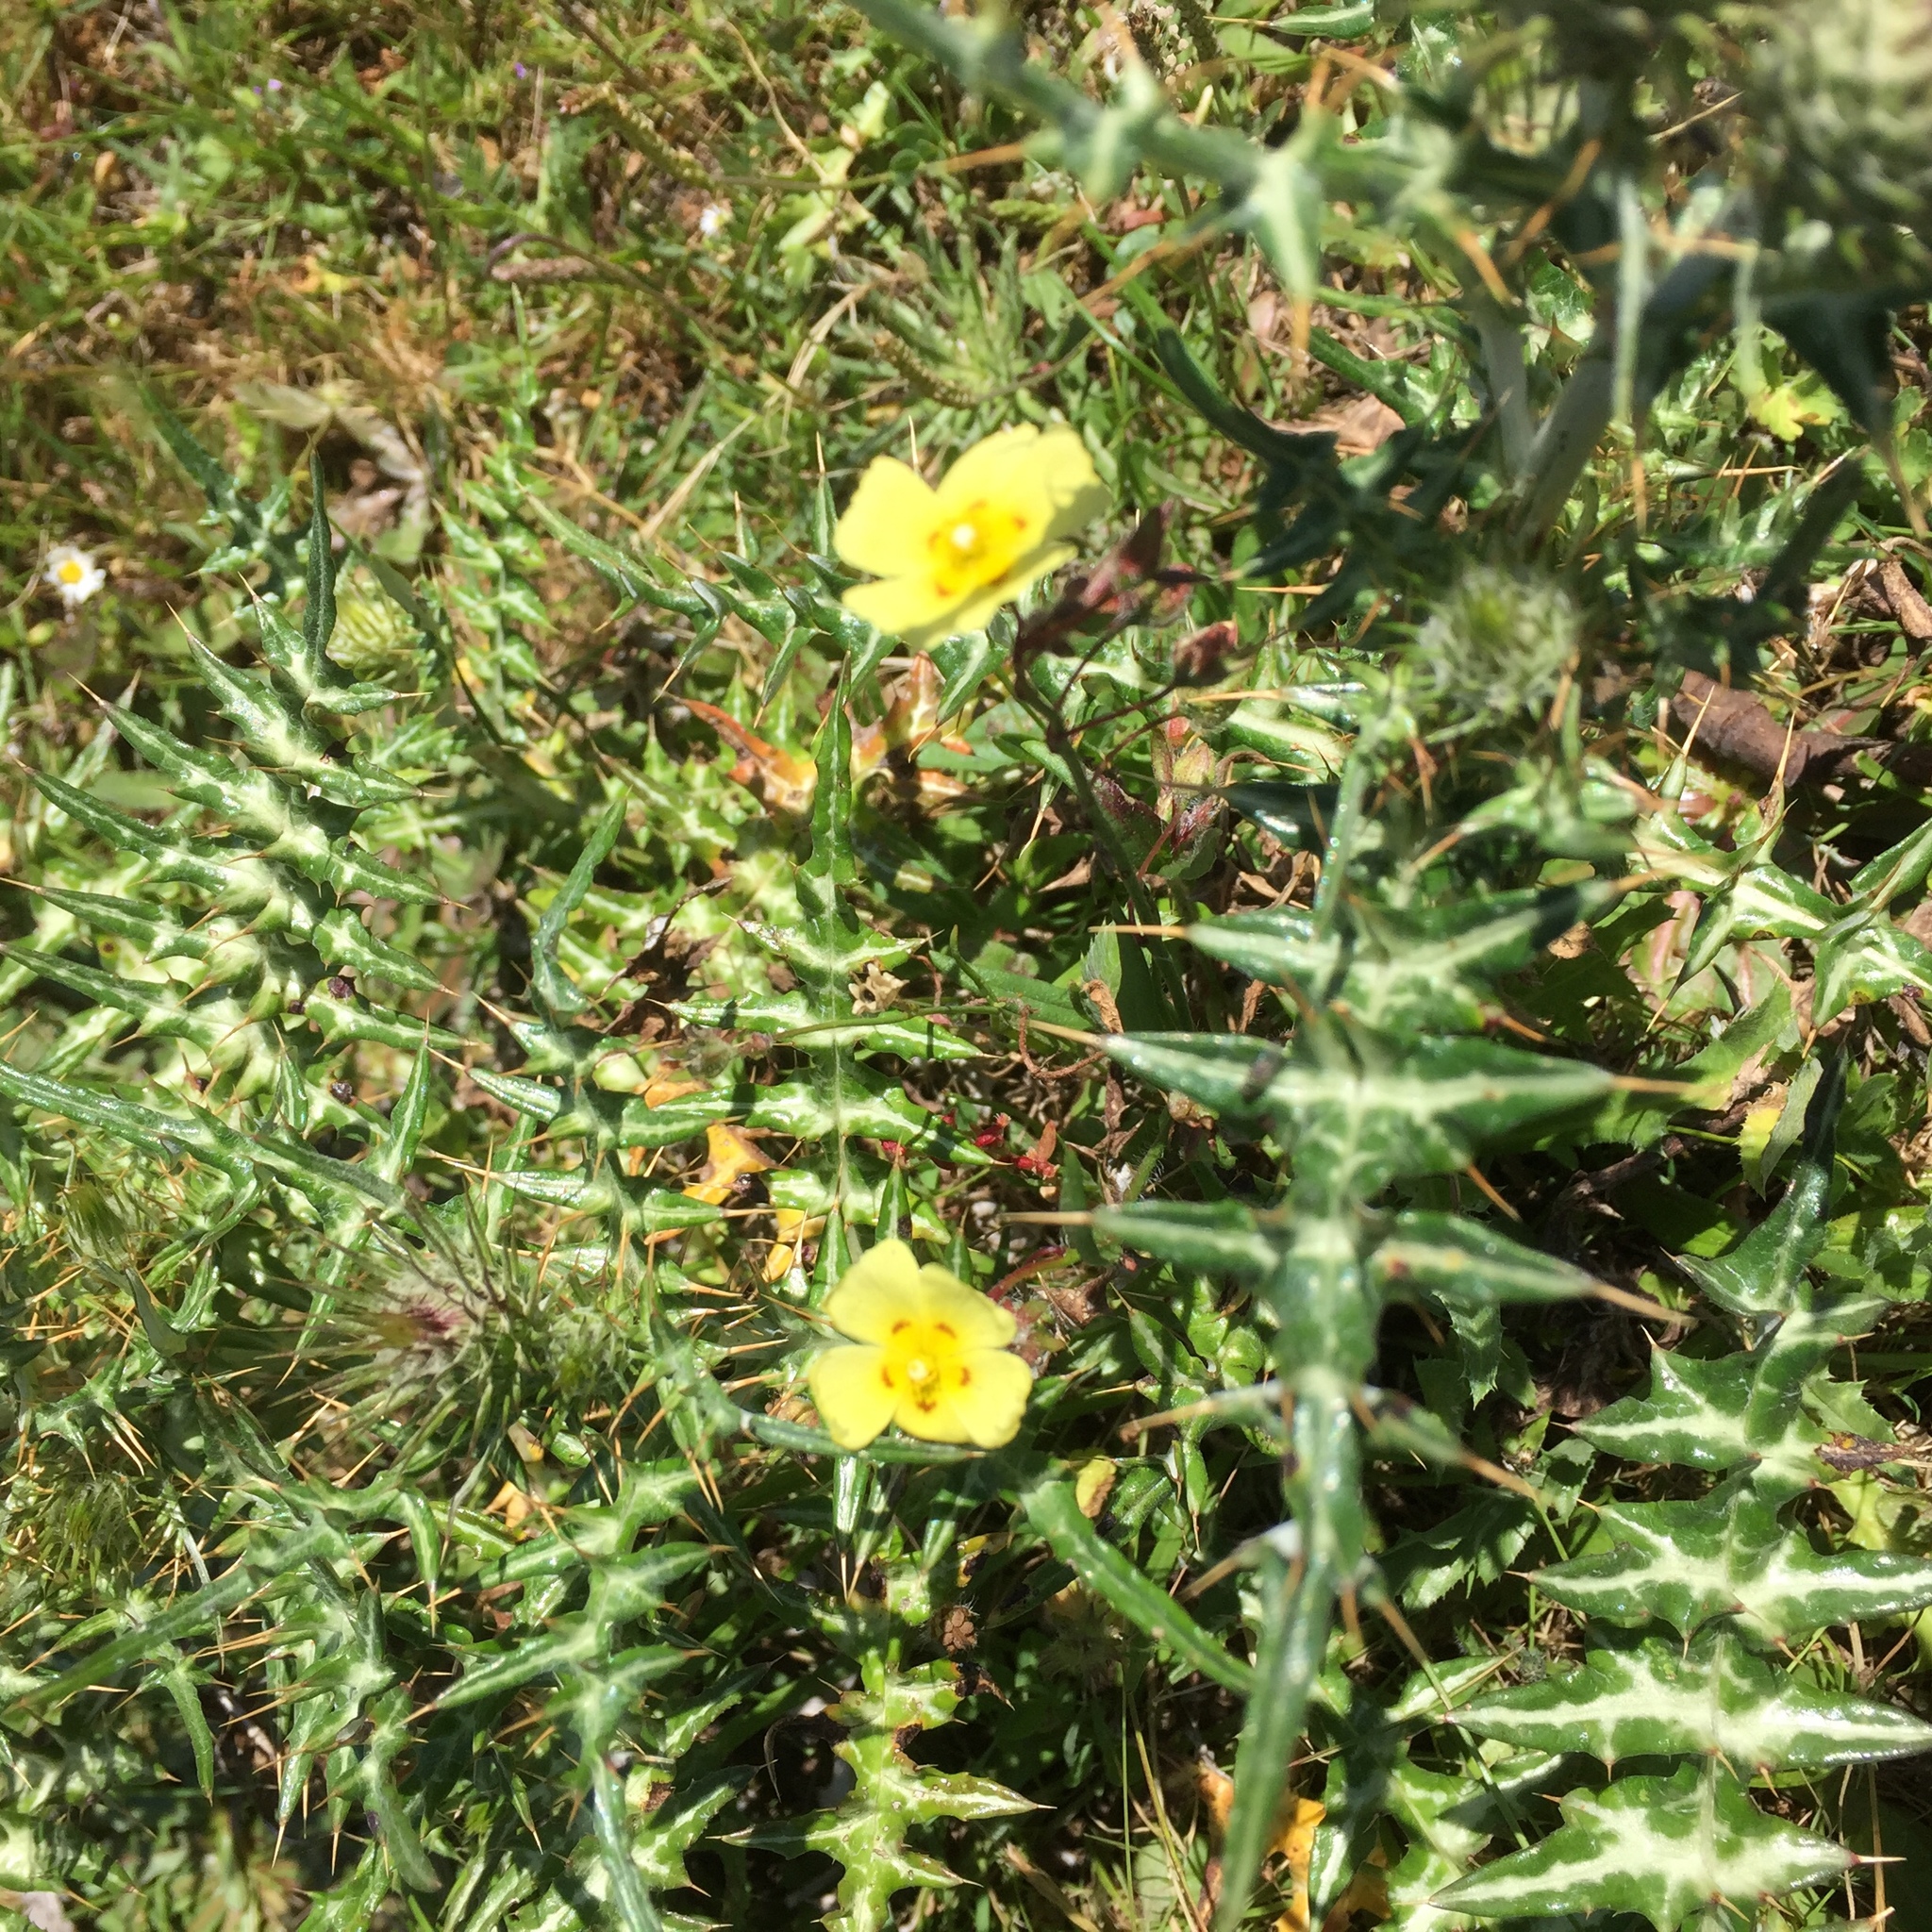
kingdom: Plantae
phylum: Tracheophyta
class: Magnoliopsida
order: Malvales
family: Cistaceae
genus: Tuberaria
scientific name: Tuberaria guttata
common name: Spotted rock-rose
